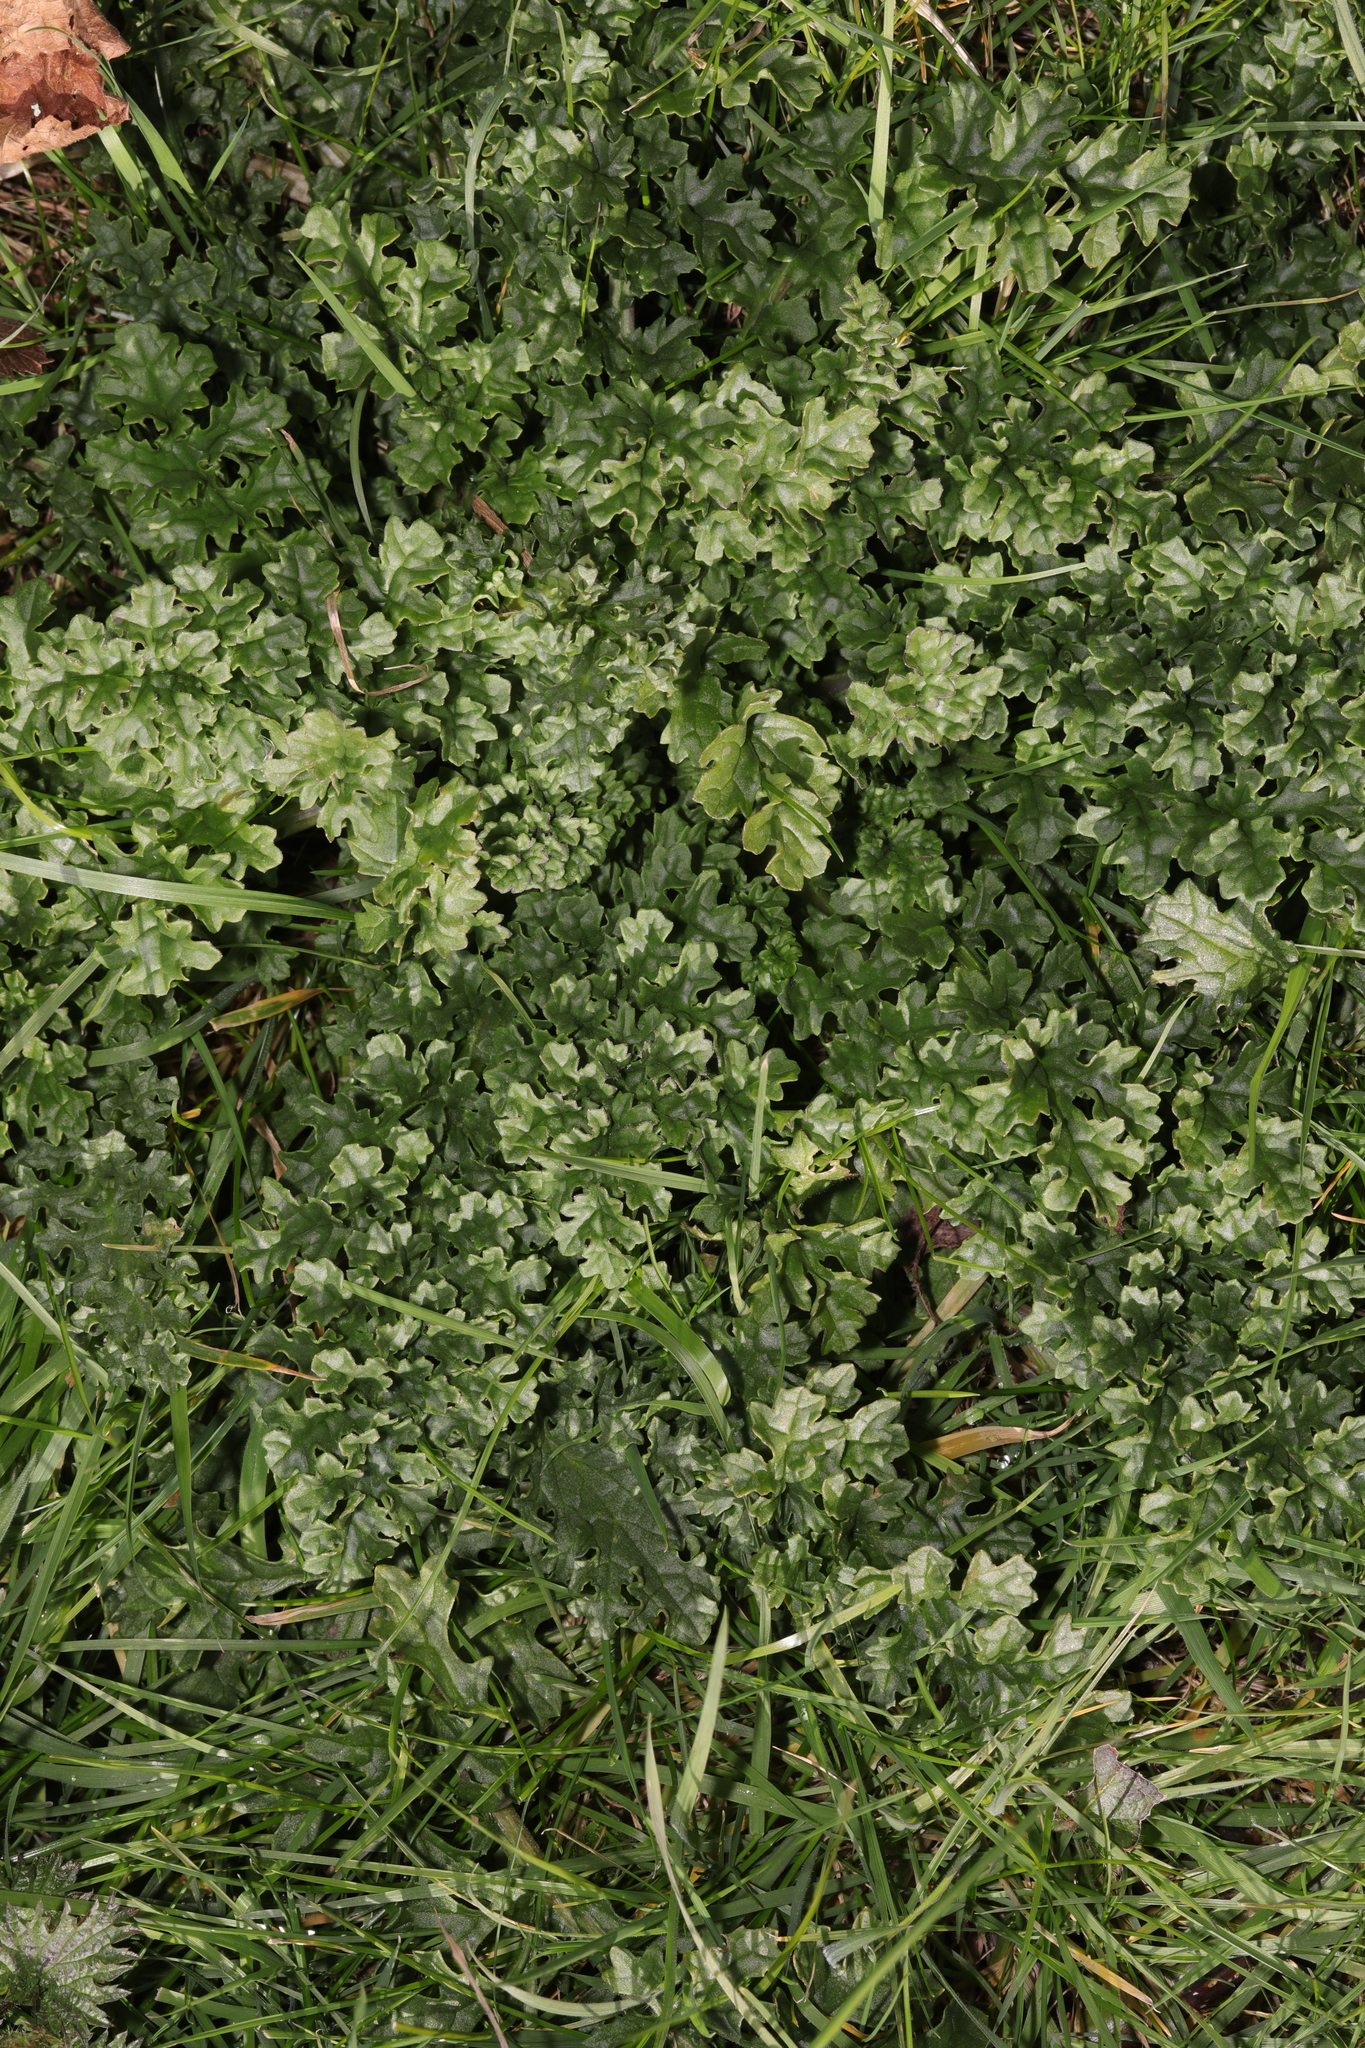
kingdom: Plantae
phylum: Tracheophyta
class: Magnoliopsida
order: Asterales
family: Asteraceae
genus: Jacobaea
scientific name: Jacobaea vulgaris
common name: Stinking willie
